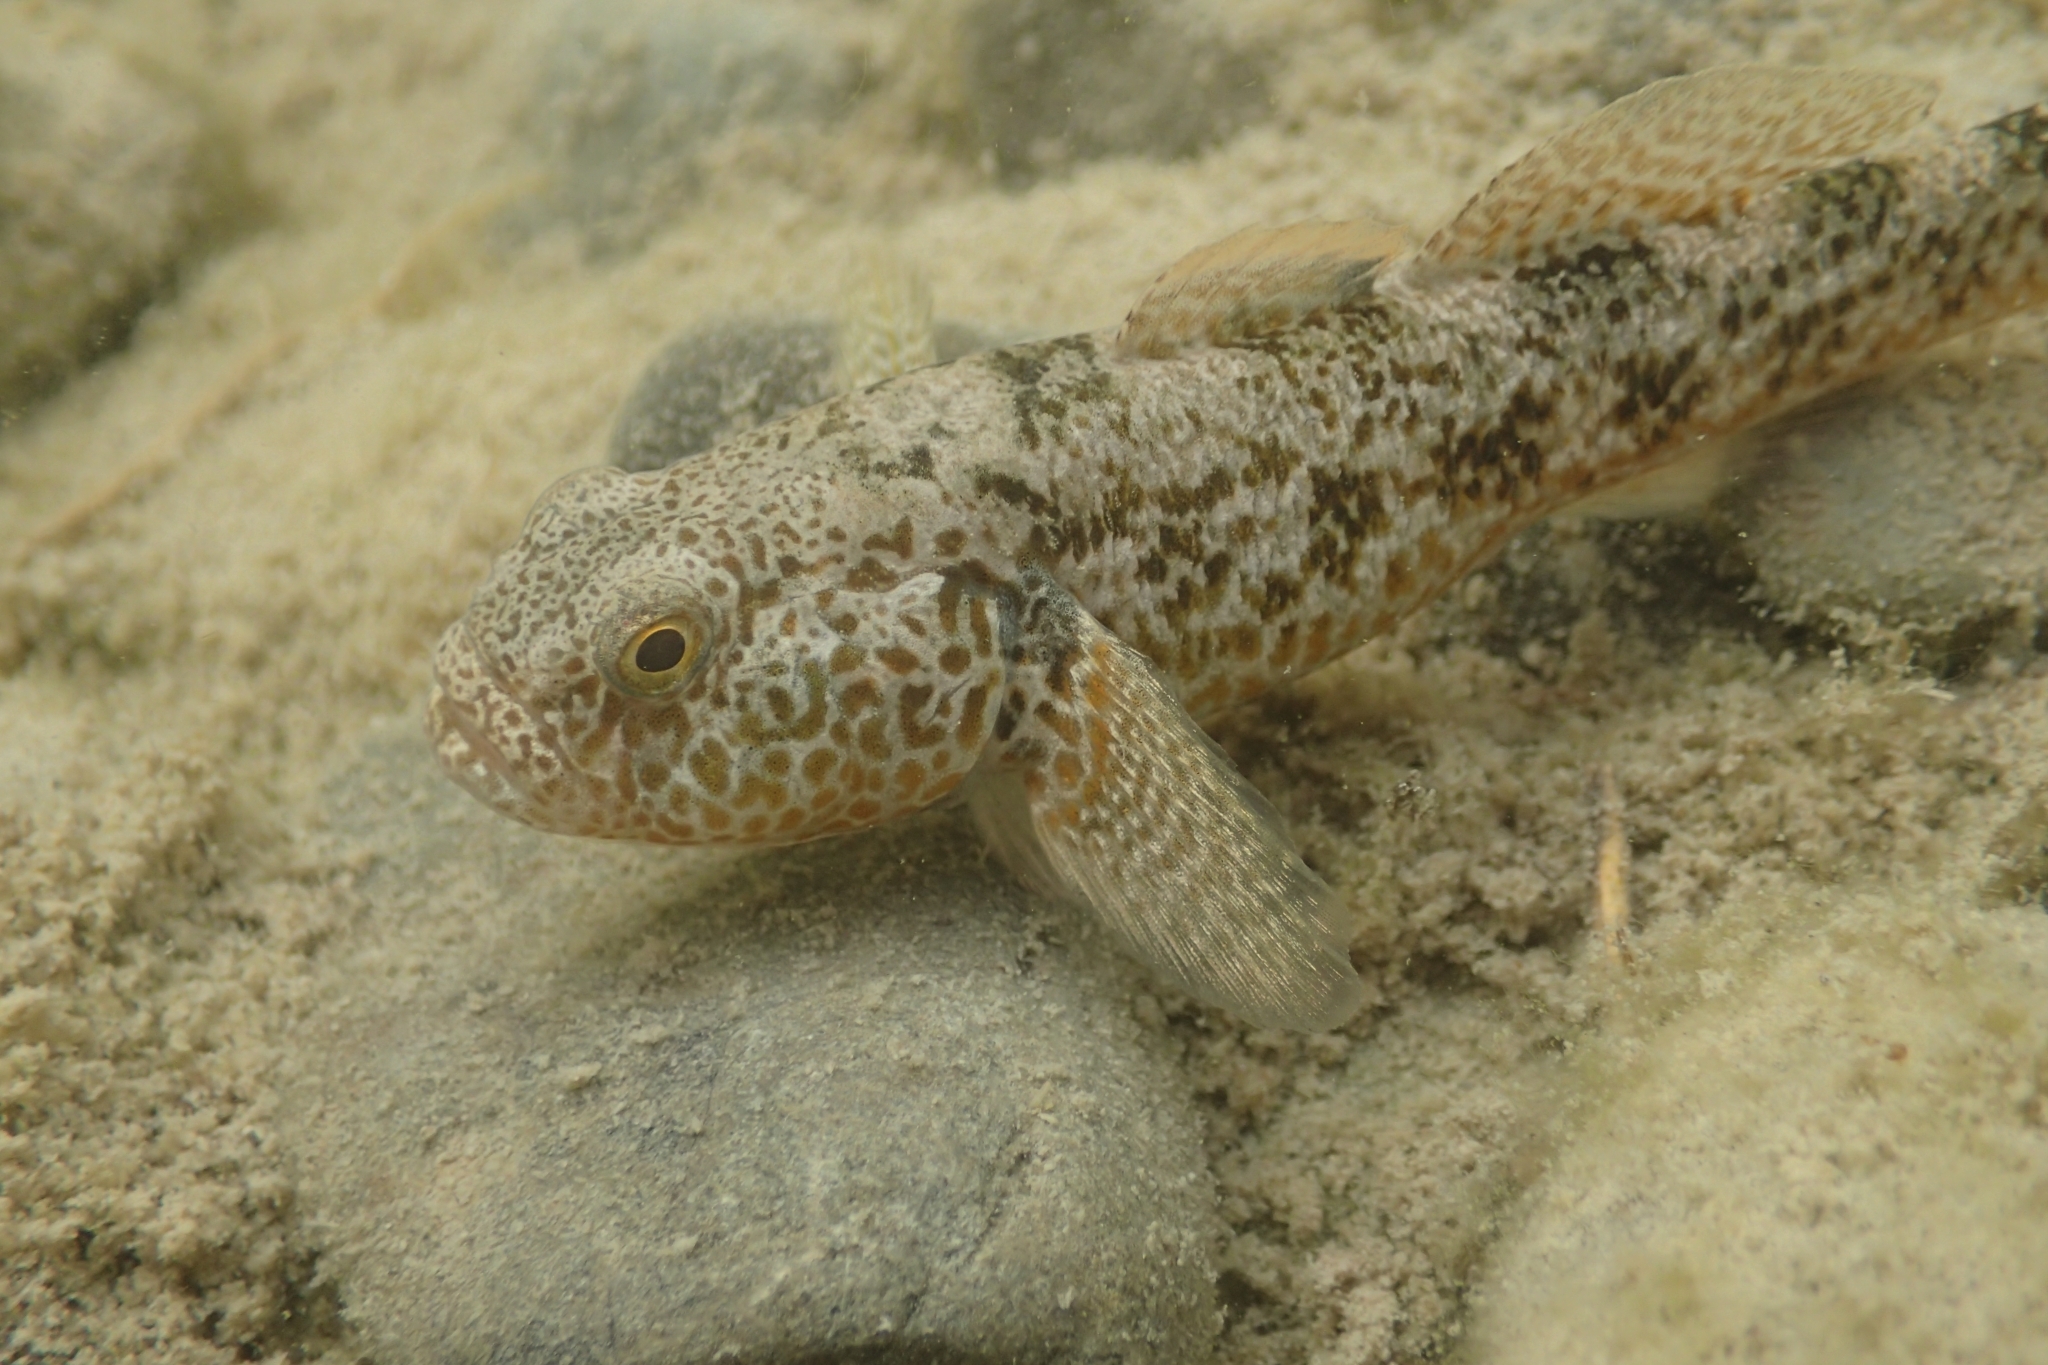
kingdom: Animalia
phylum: Chordata
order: Perciformes
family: Eleotridae
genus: Gobiomorphus
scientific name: Gobiomorphus breviceps
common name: Upland bully
